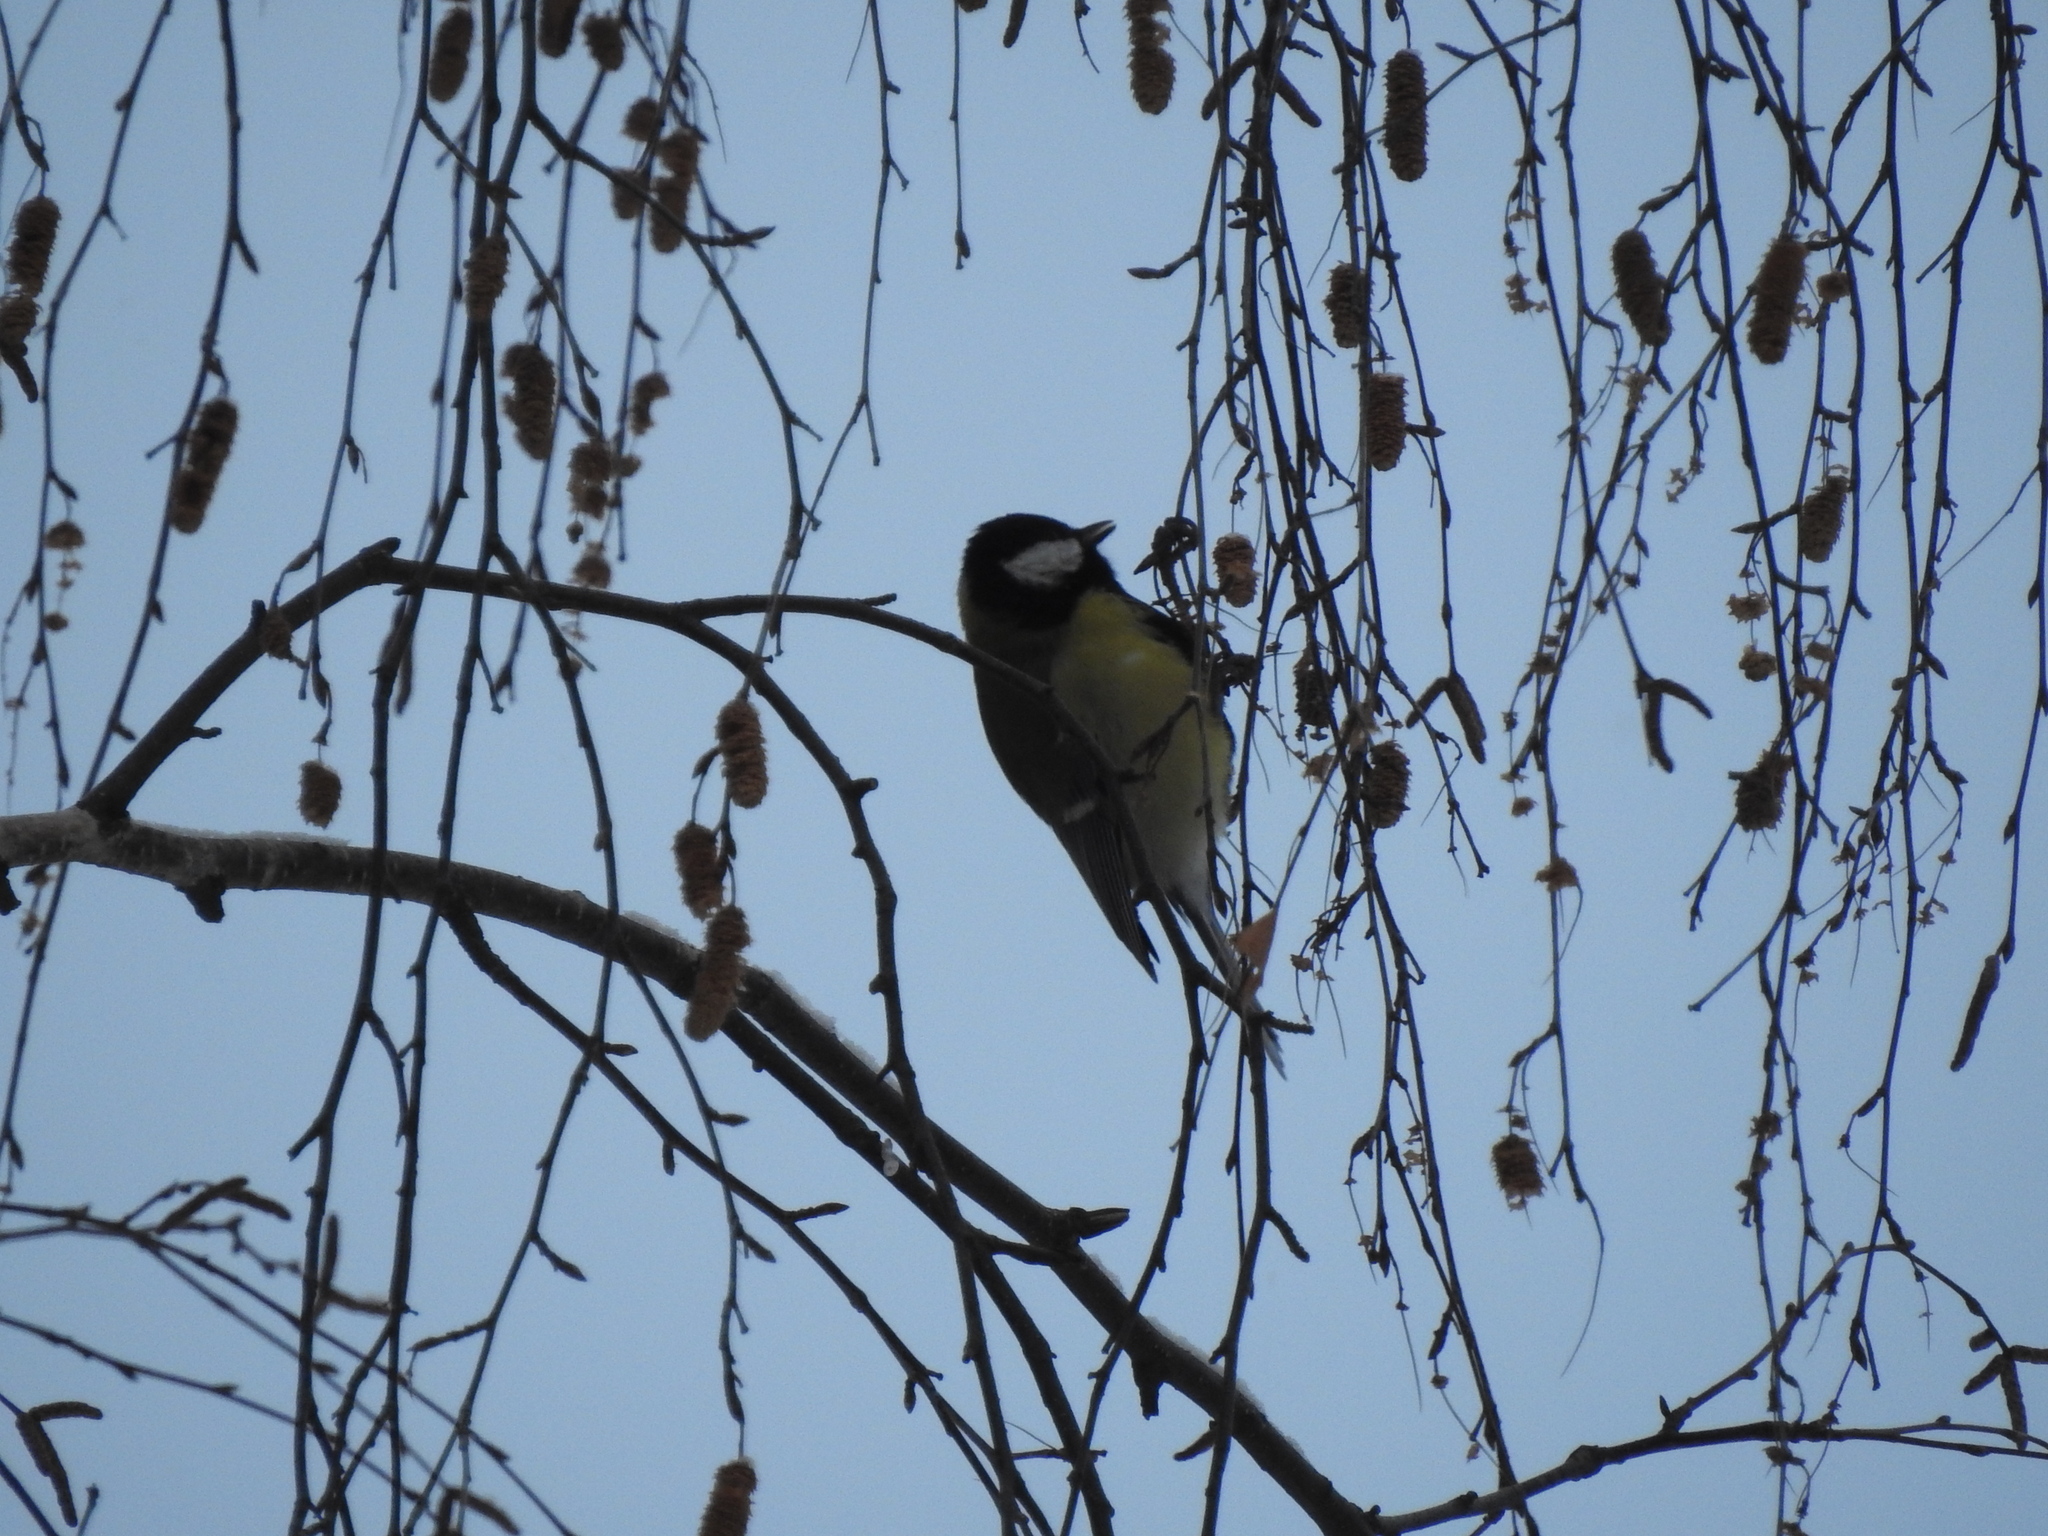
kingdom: Animalia
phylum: Chordata
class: Aves
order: Passeriformes
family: Paridae
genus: Parus
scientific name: Parus major
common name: Great tit
